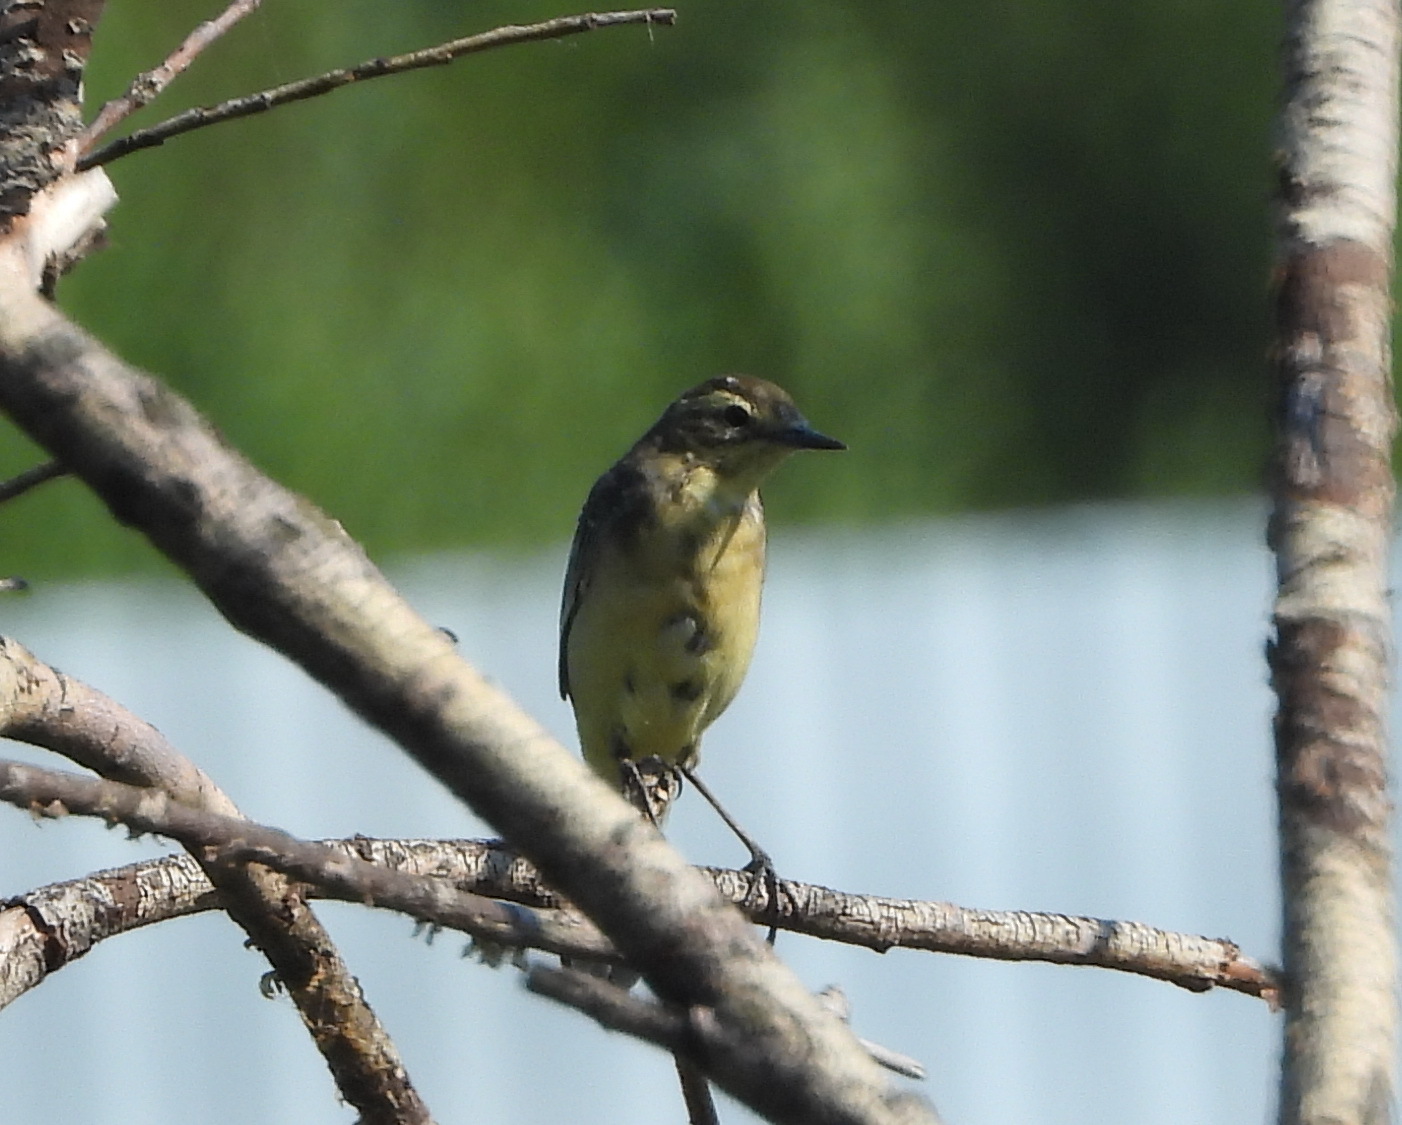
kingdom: Animalia
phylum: Chordata
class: Aves
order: Passeriformes
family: Motacillidae
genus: Motacilla
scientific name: Motacilla flava
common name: Western yellow wagtail
